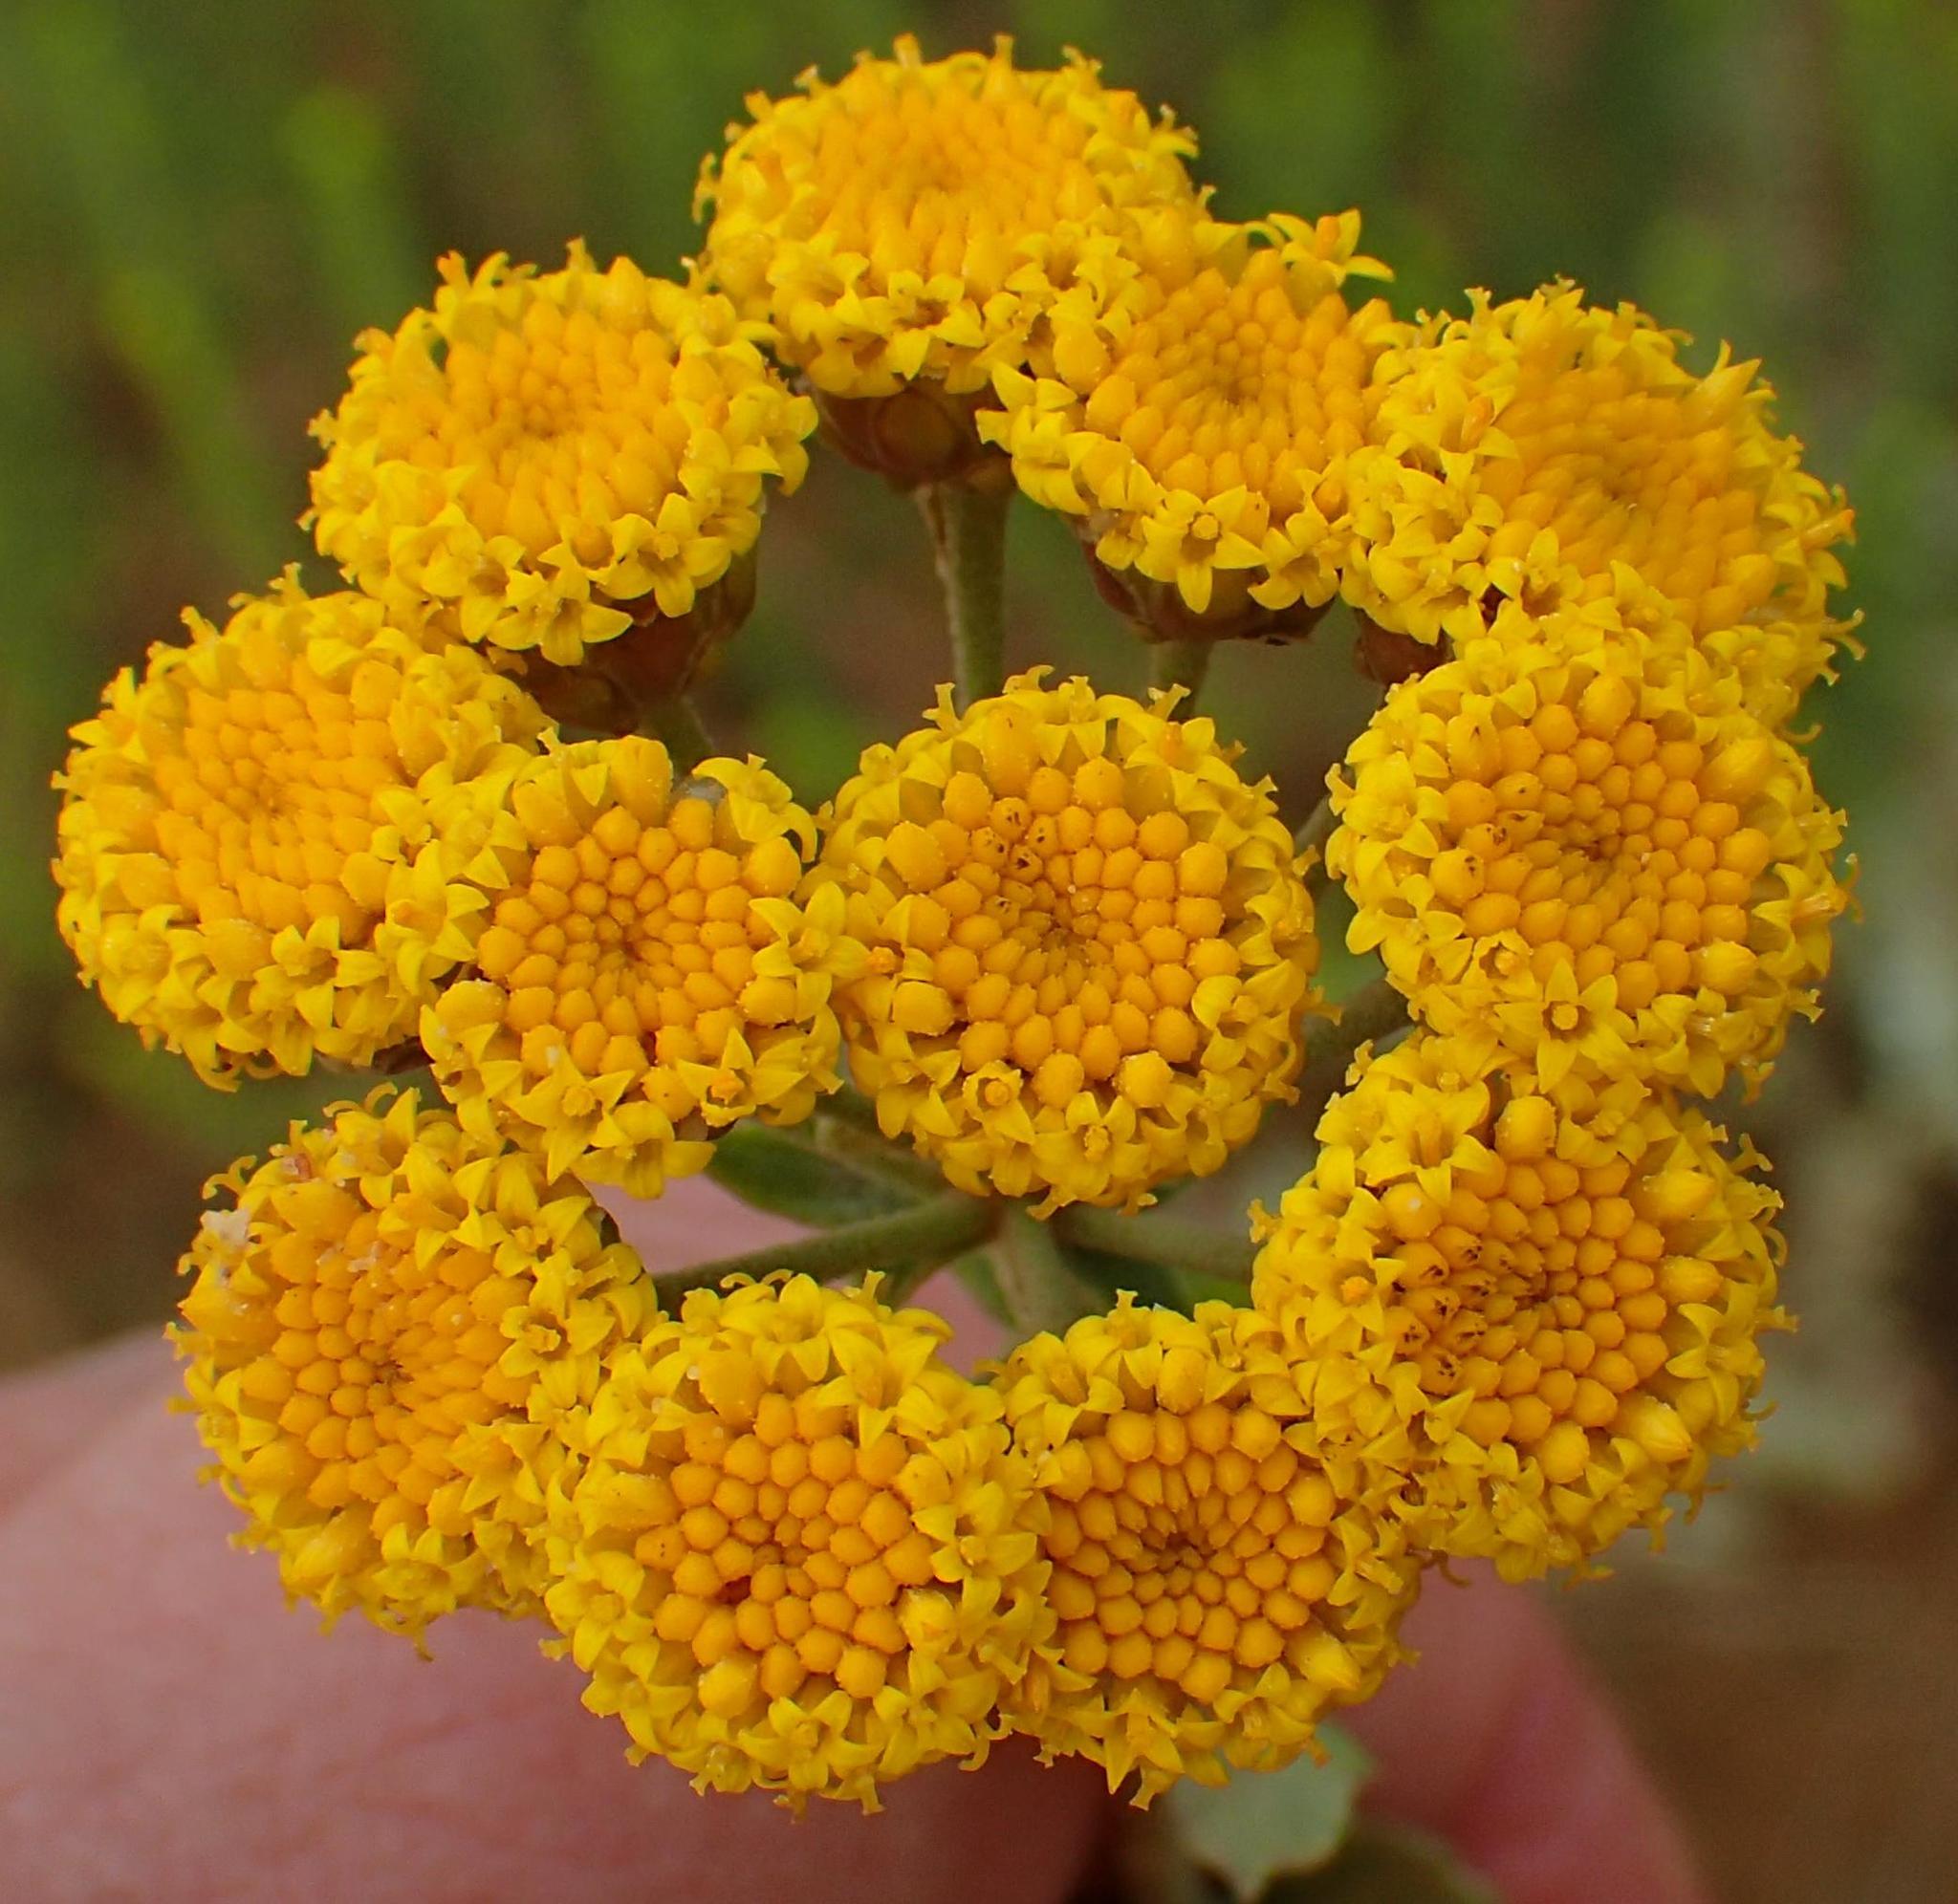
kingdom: Plantae
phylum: Tracheophyta
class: Magnoliopsida
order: Asterales
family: Asteraceae
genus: Athanasia
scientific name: Athanasia trifurcata
